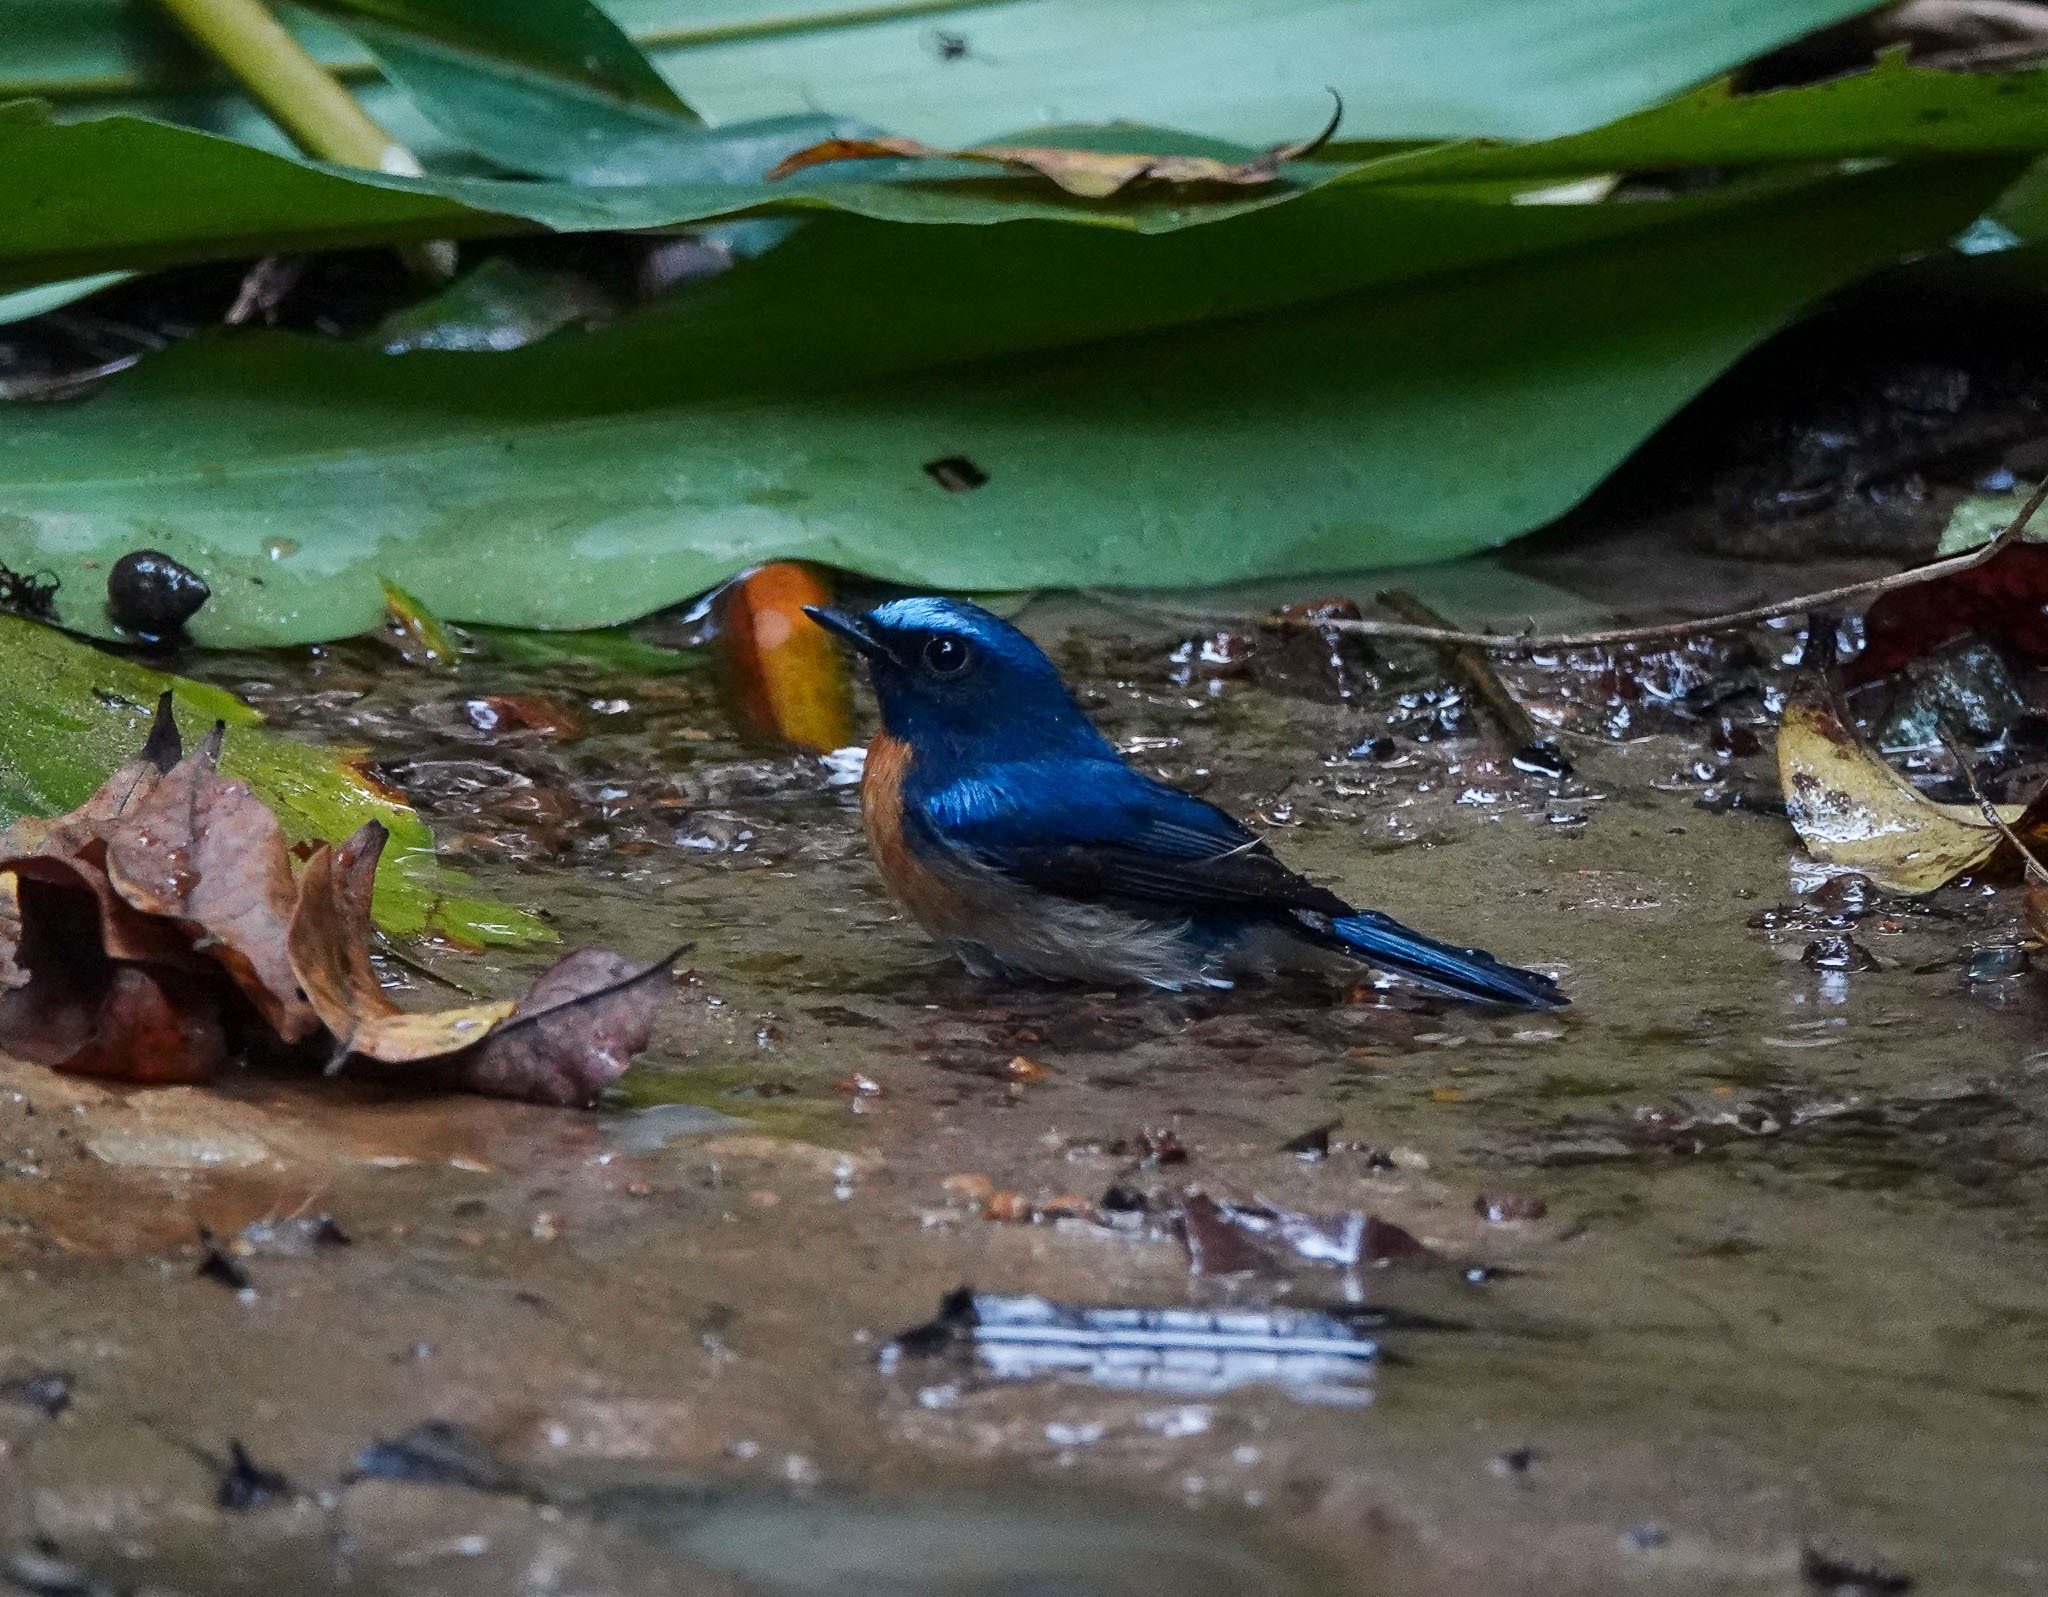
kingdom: Animalia
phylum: Chordata
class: Aves
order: Passeriformes
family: Muscicapidae
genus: Cyornis
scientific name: Cyornis rubeculoides
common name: Blue-throated blue flycatcher
